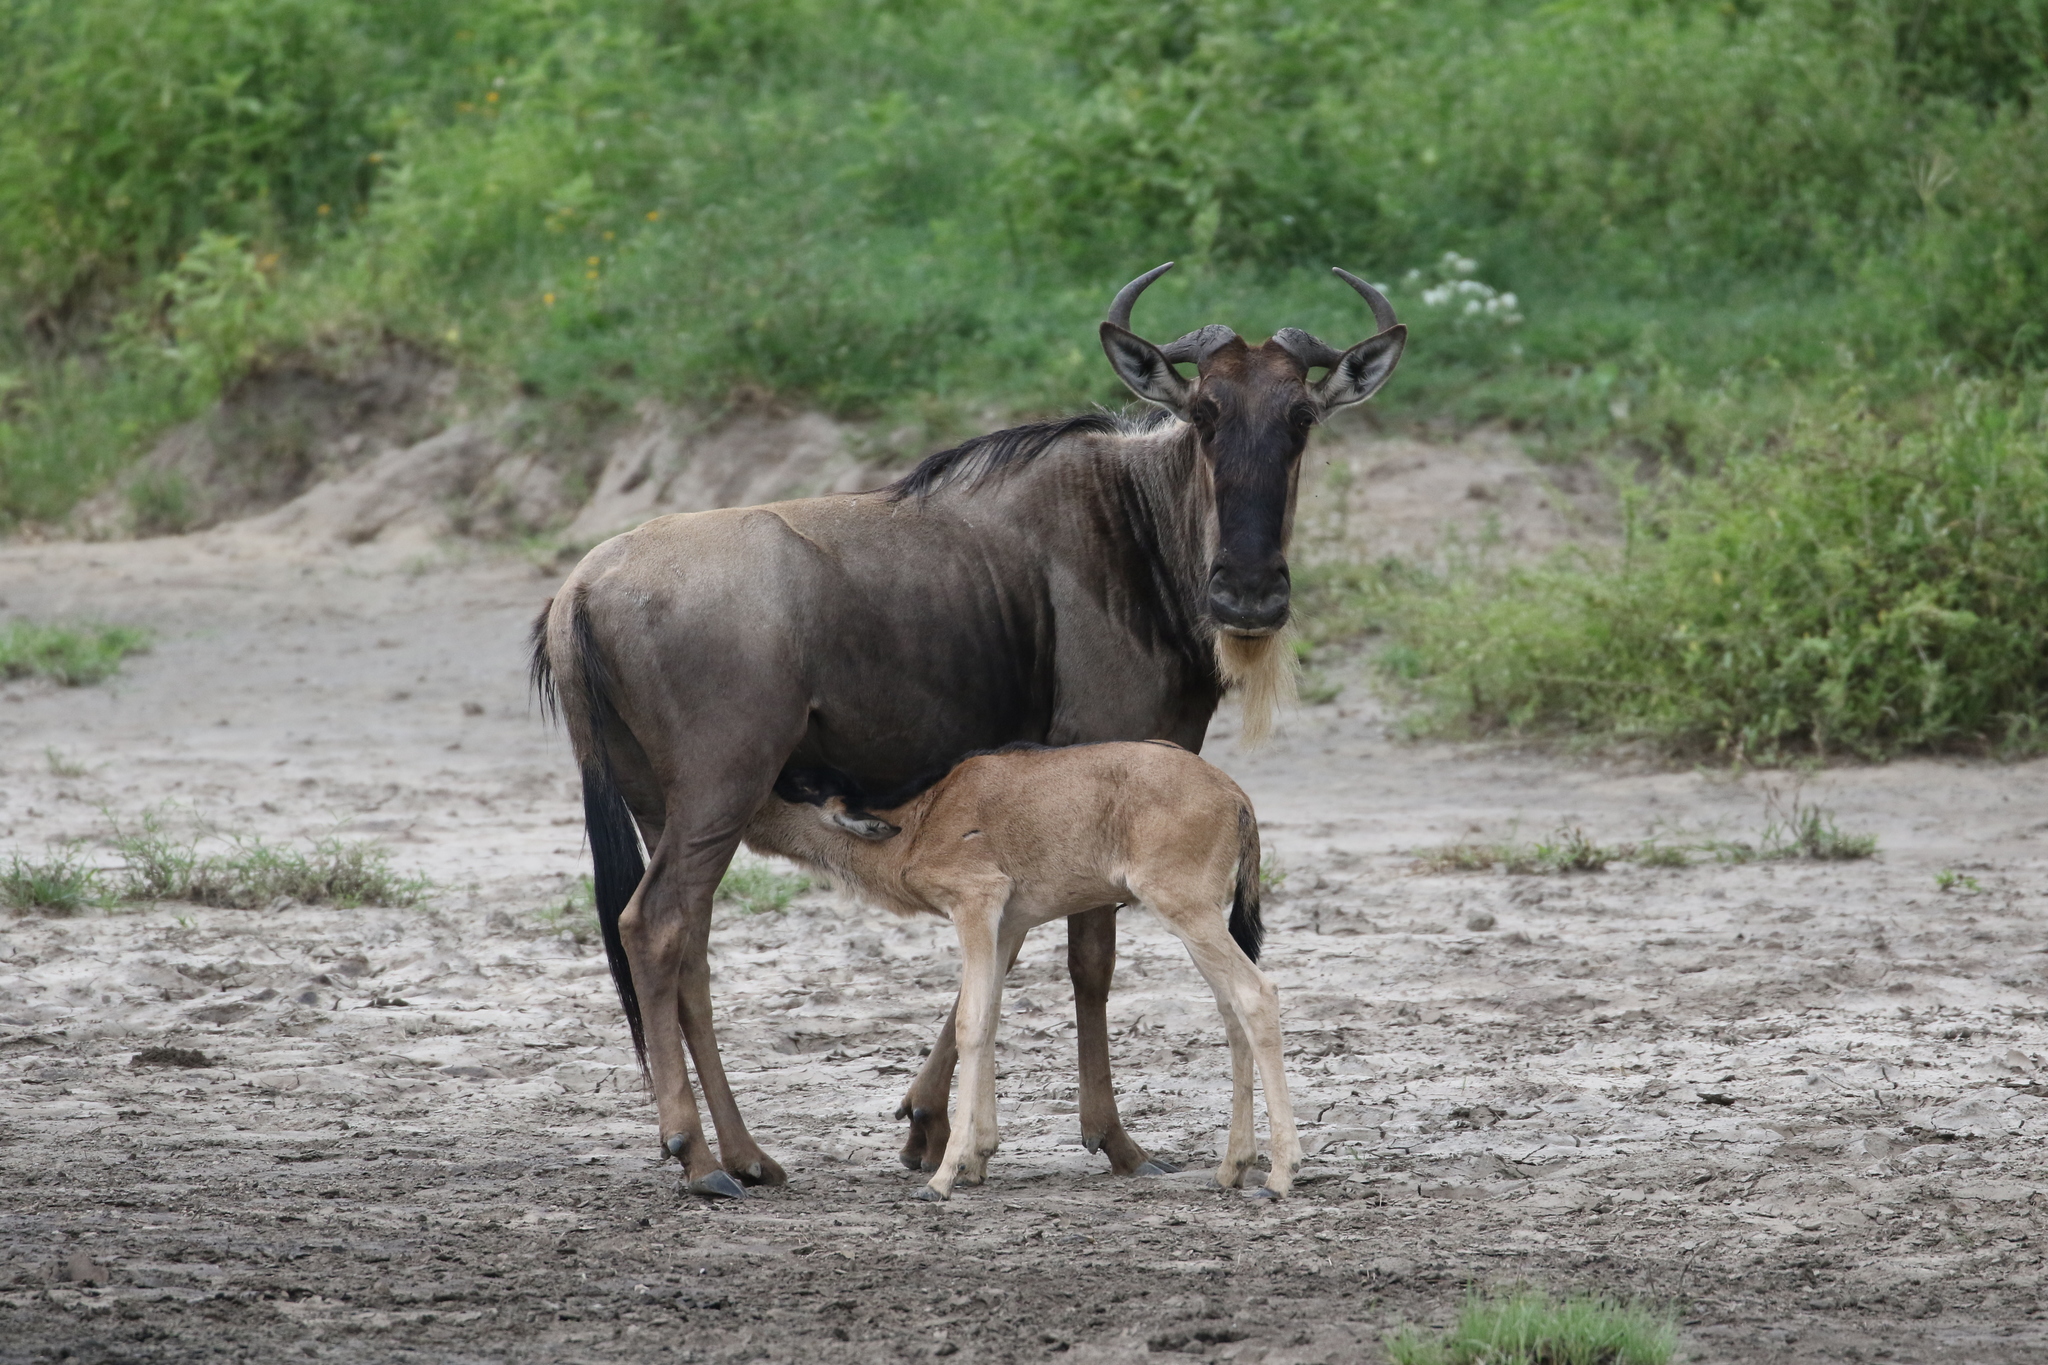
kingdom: Animalia
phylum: Chordata
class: Mammalia
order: Artiodactyla
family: Bovidae
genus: Connochaetes
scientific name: Connochaetes taurinus
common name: Blue wildebeest
